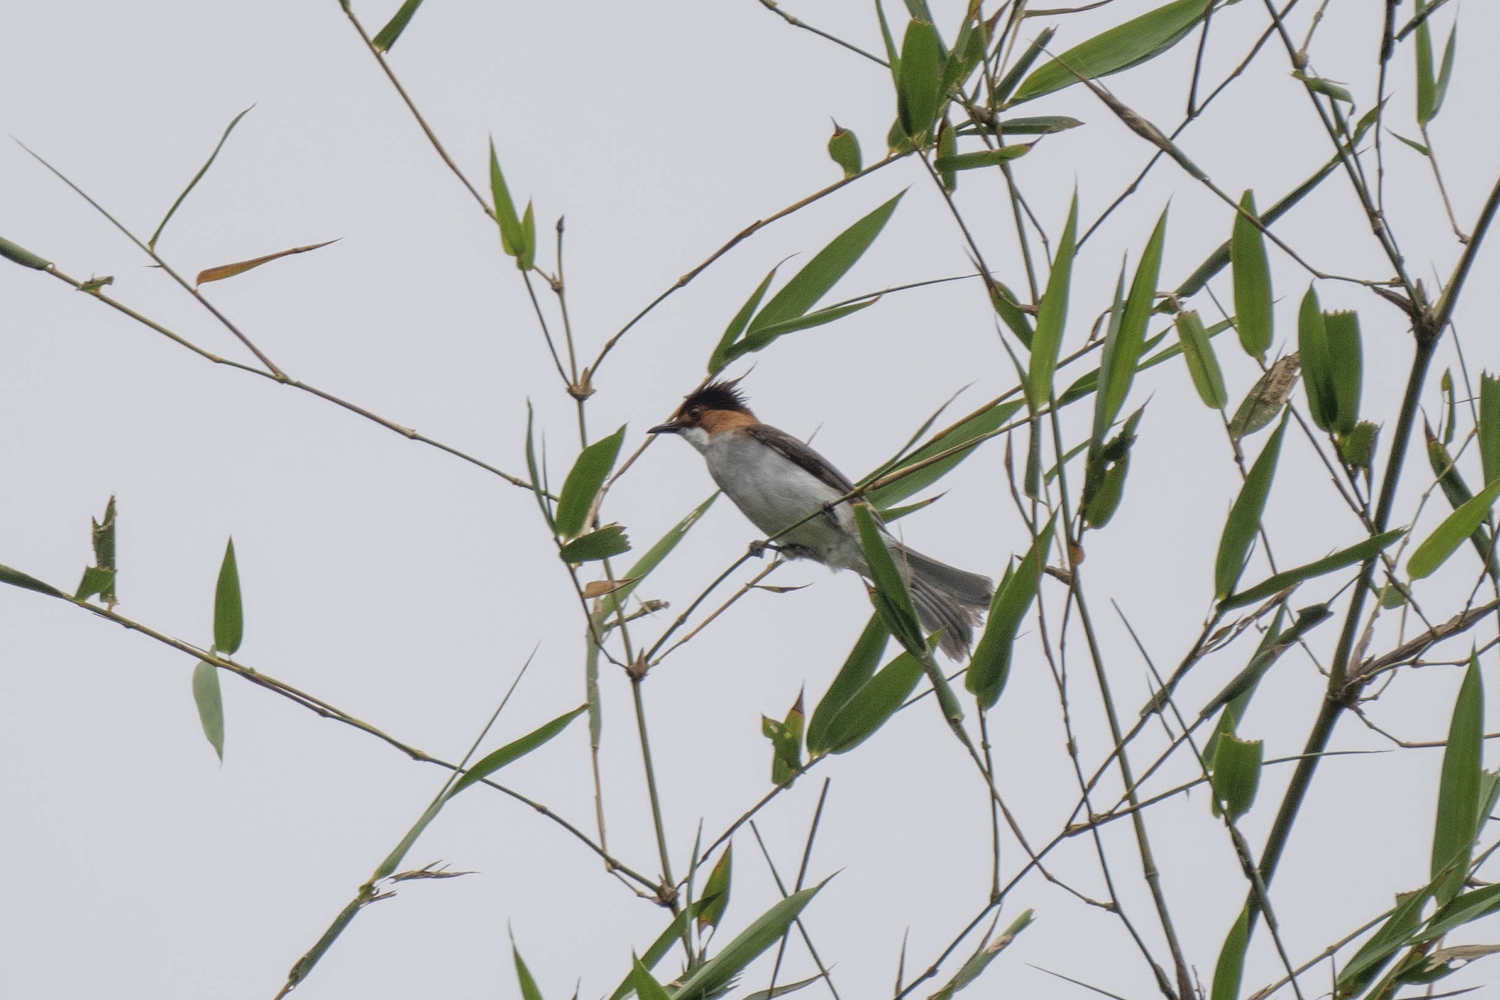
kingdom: Animalia
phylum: Chordata
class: Aves
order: Passeriformes
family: Pycnonotidae
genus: Hemixos
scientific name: Hemixos castanonotus
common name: Chestnut bulbul
